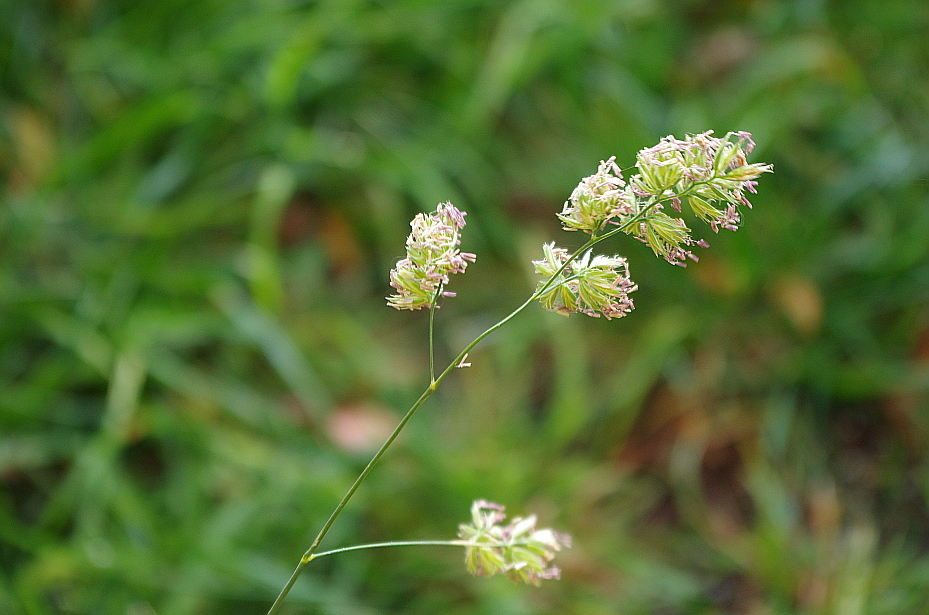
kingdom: Plantae
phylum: Tracheophyta
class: Liliopsida
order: Poales
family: Poaceae
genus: Dactylis
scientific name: Dactylis glomerata
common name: Orchardgrass
